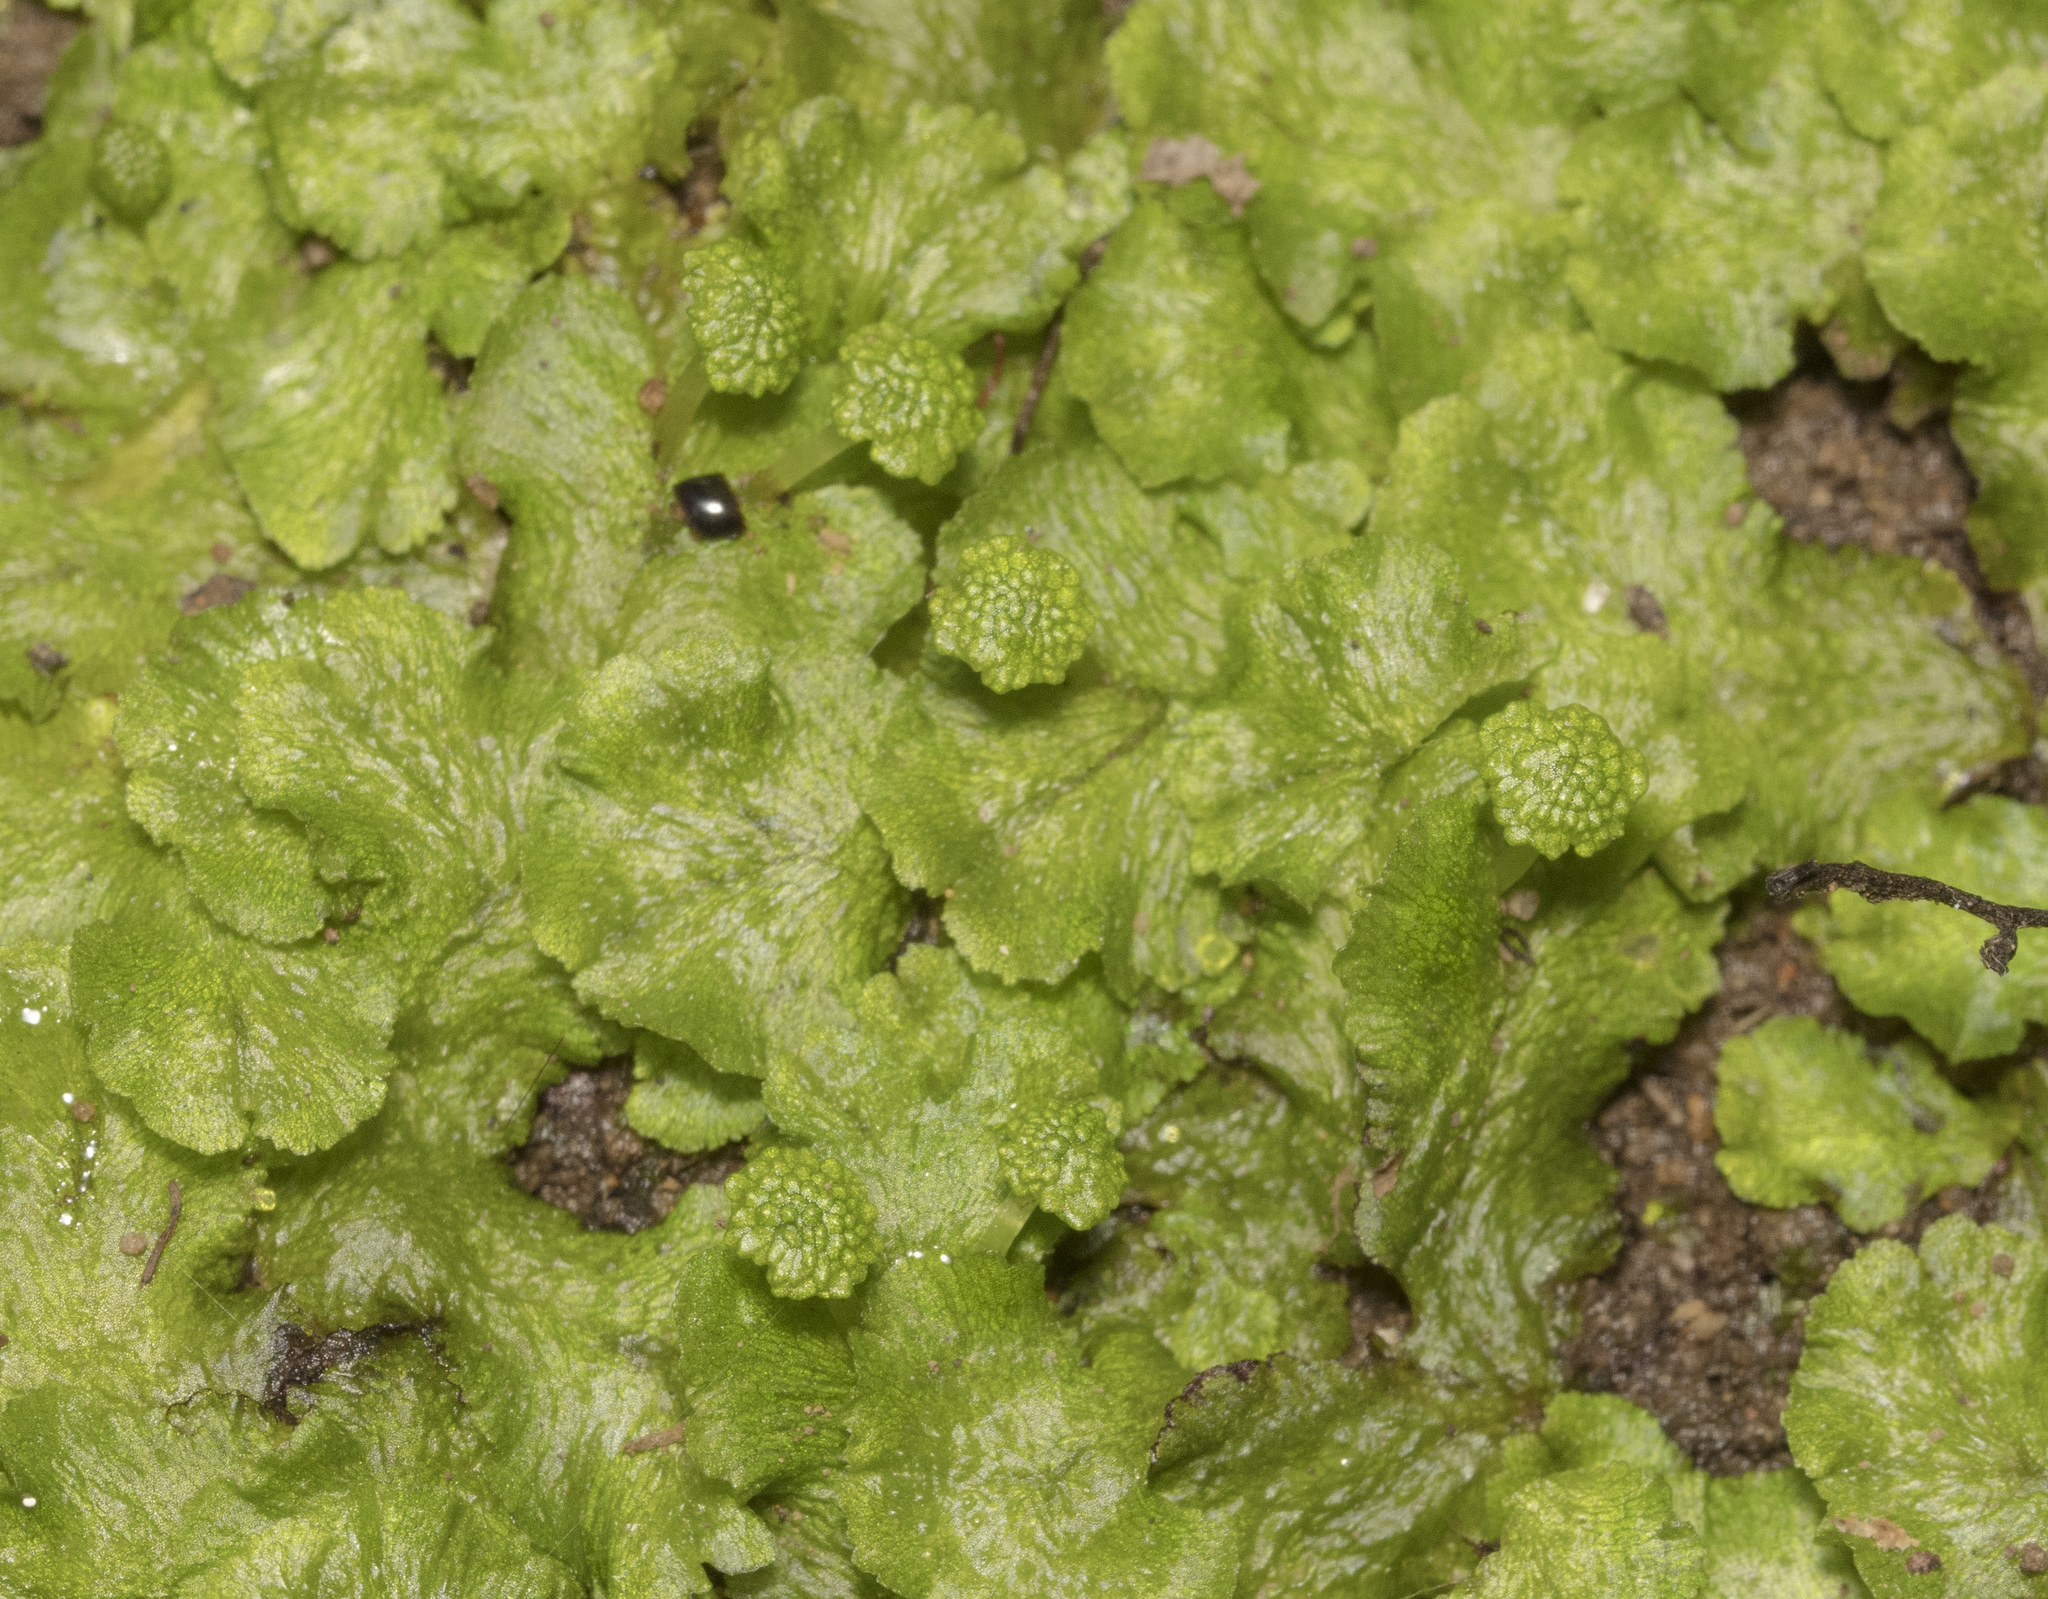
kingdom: Plantae
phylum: Marchantiophyta
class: Marchantiopsida
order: Marchantiales
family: Aytoniaceae
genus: Cryptomitrium
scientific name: Cryptomitrium tenerum
